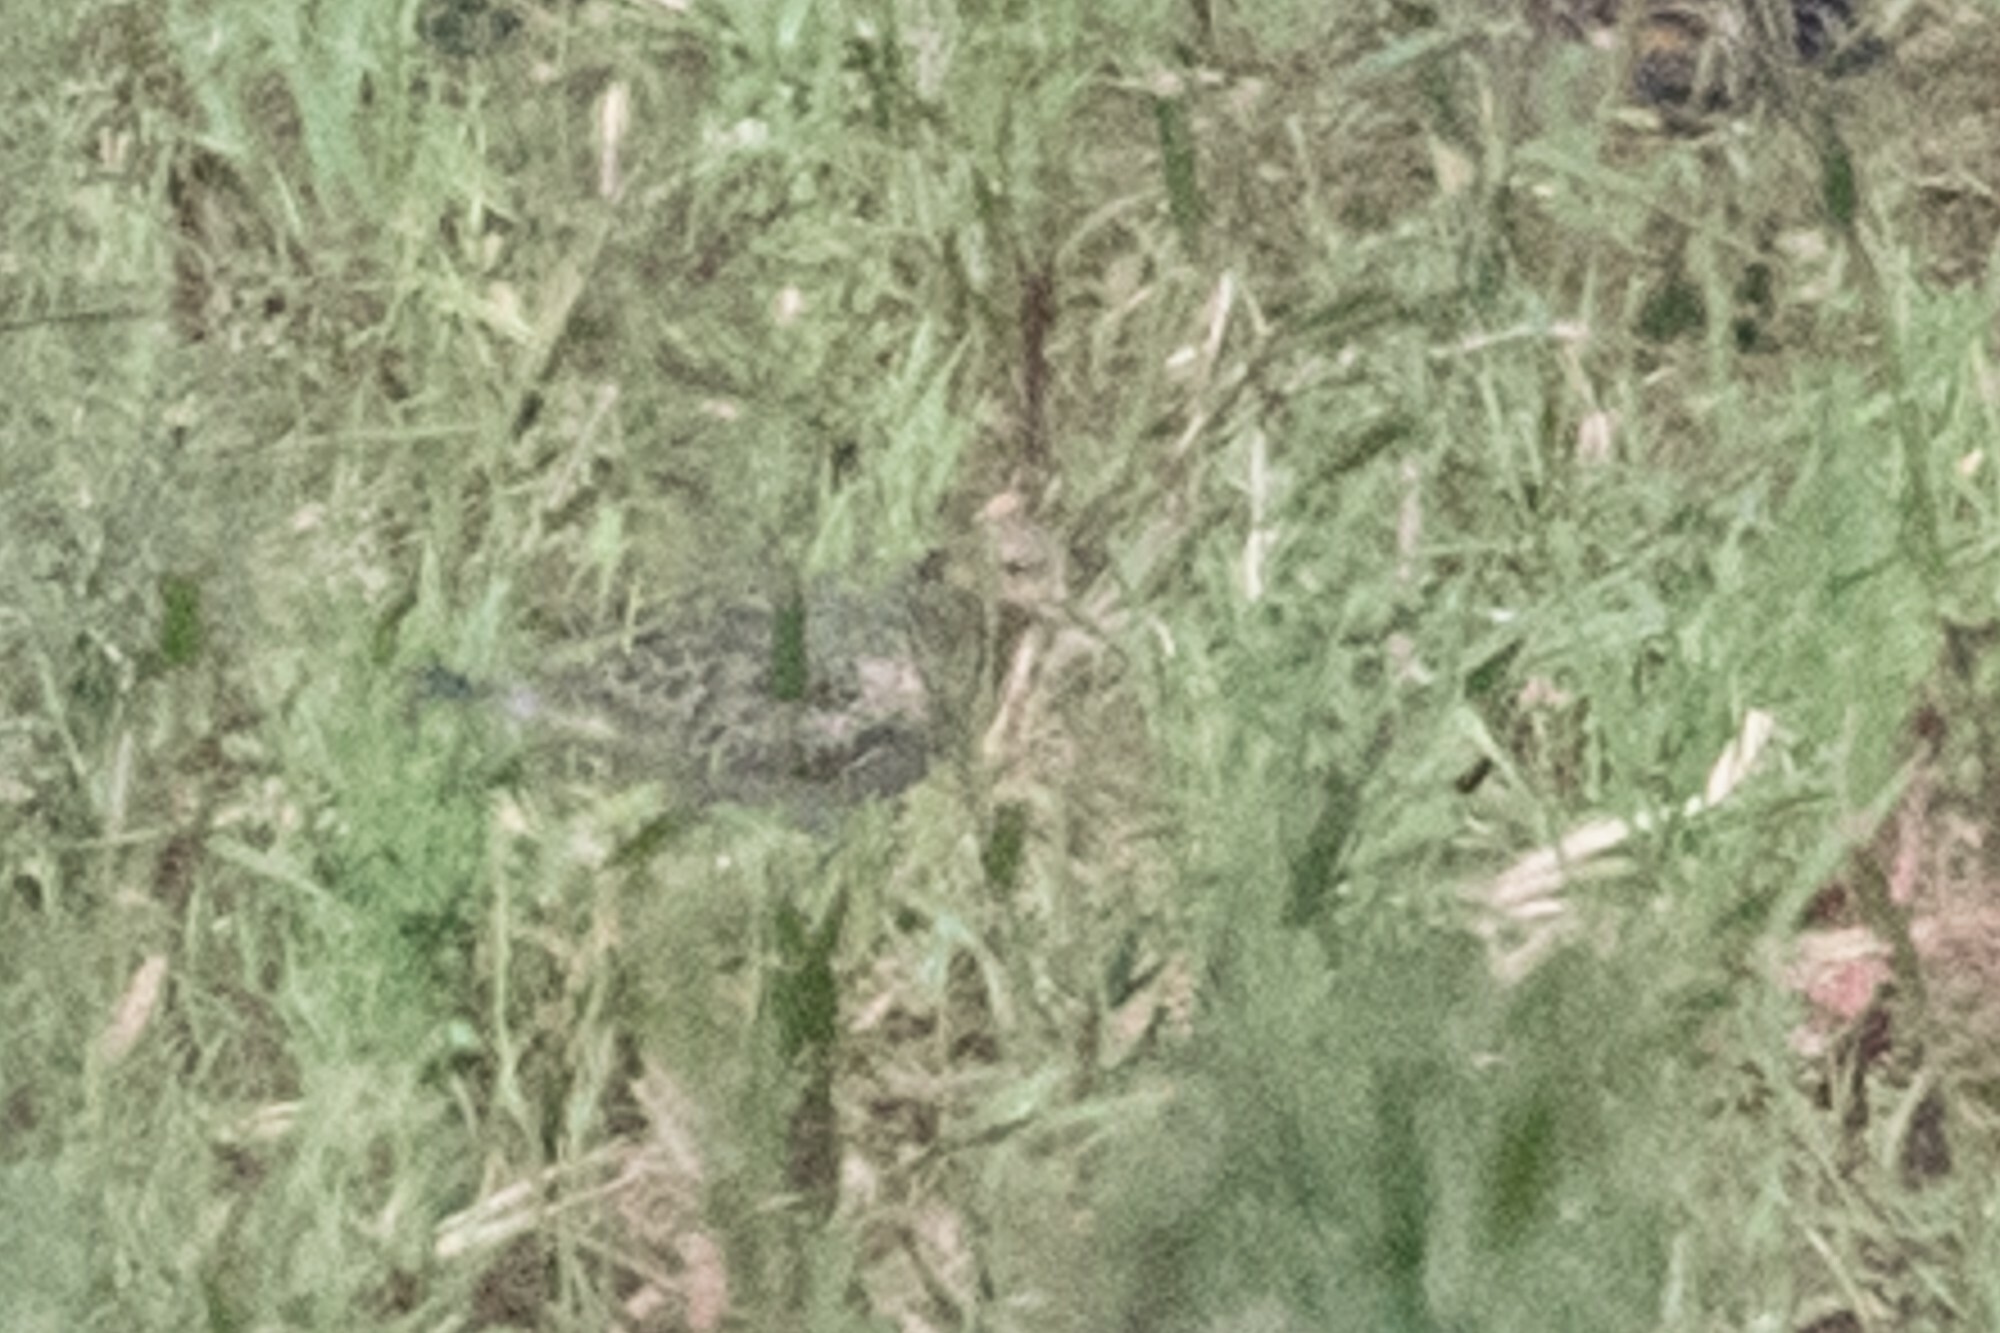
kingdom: Animalia
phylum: Chordata
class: Aves
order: Charadriiformes
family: Scolopacidae
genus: Calidris
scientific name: Calidris subruficollis
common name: Buff-breasted sandpiper
